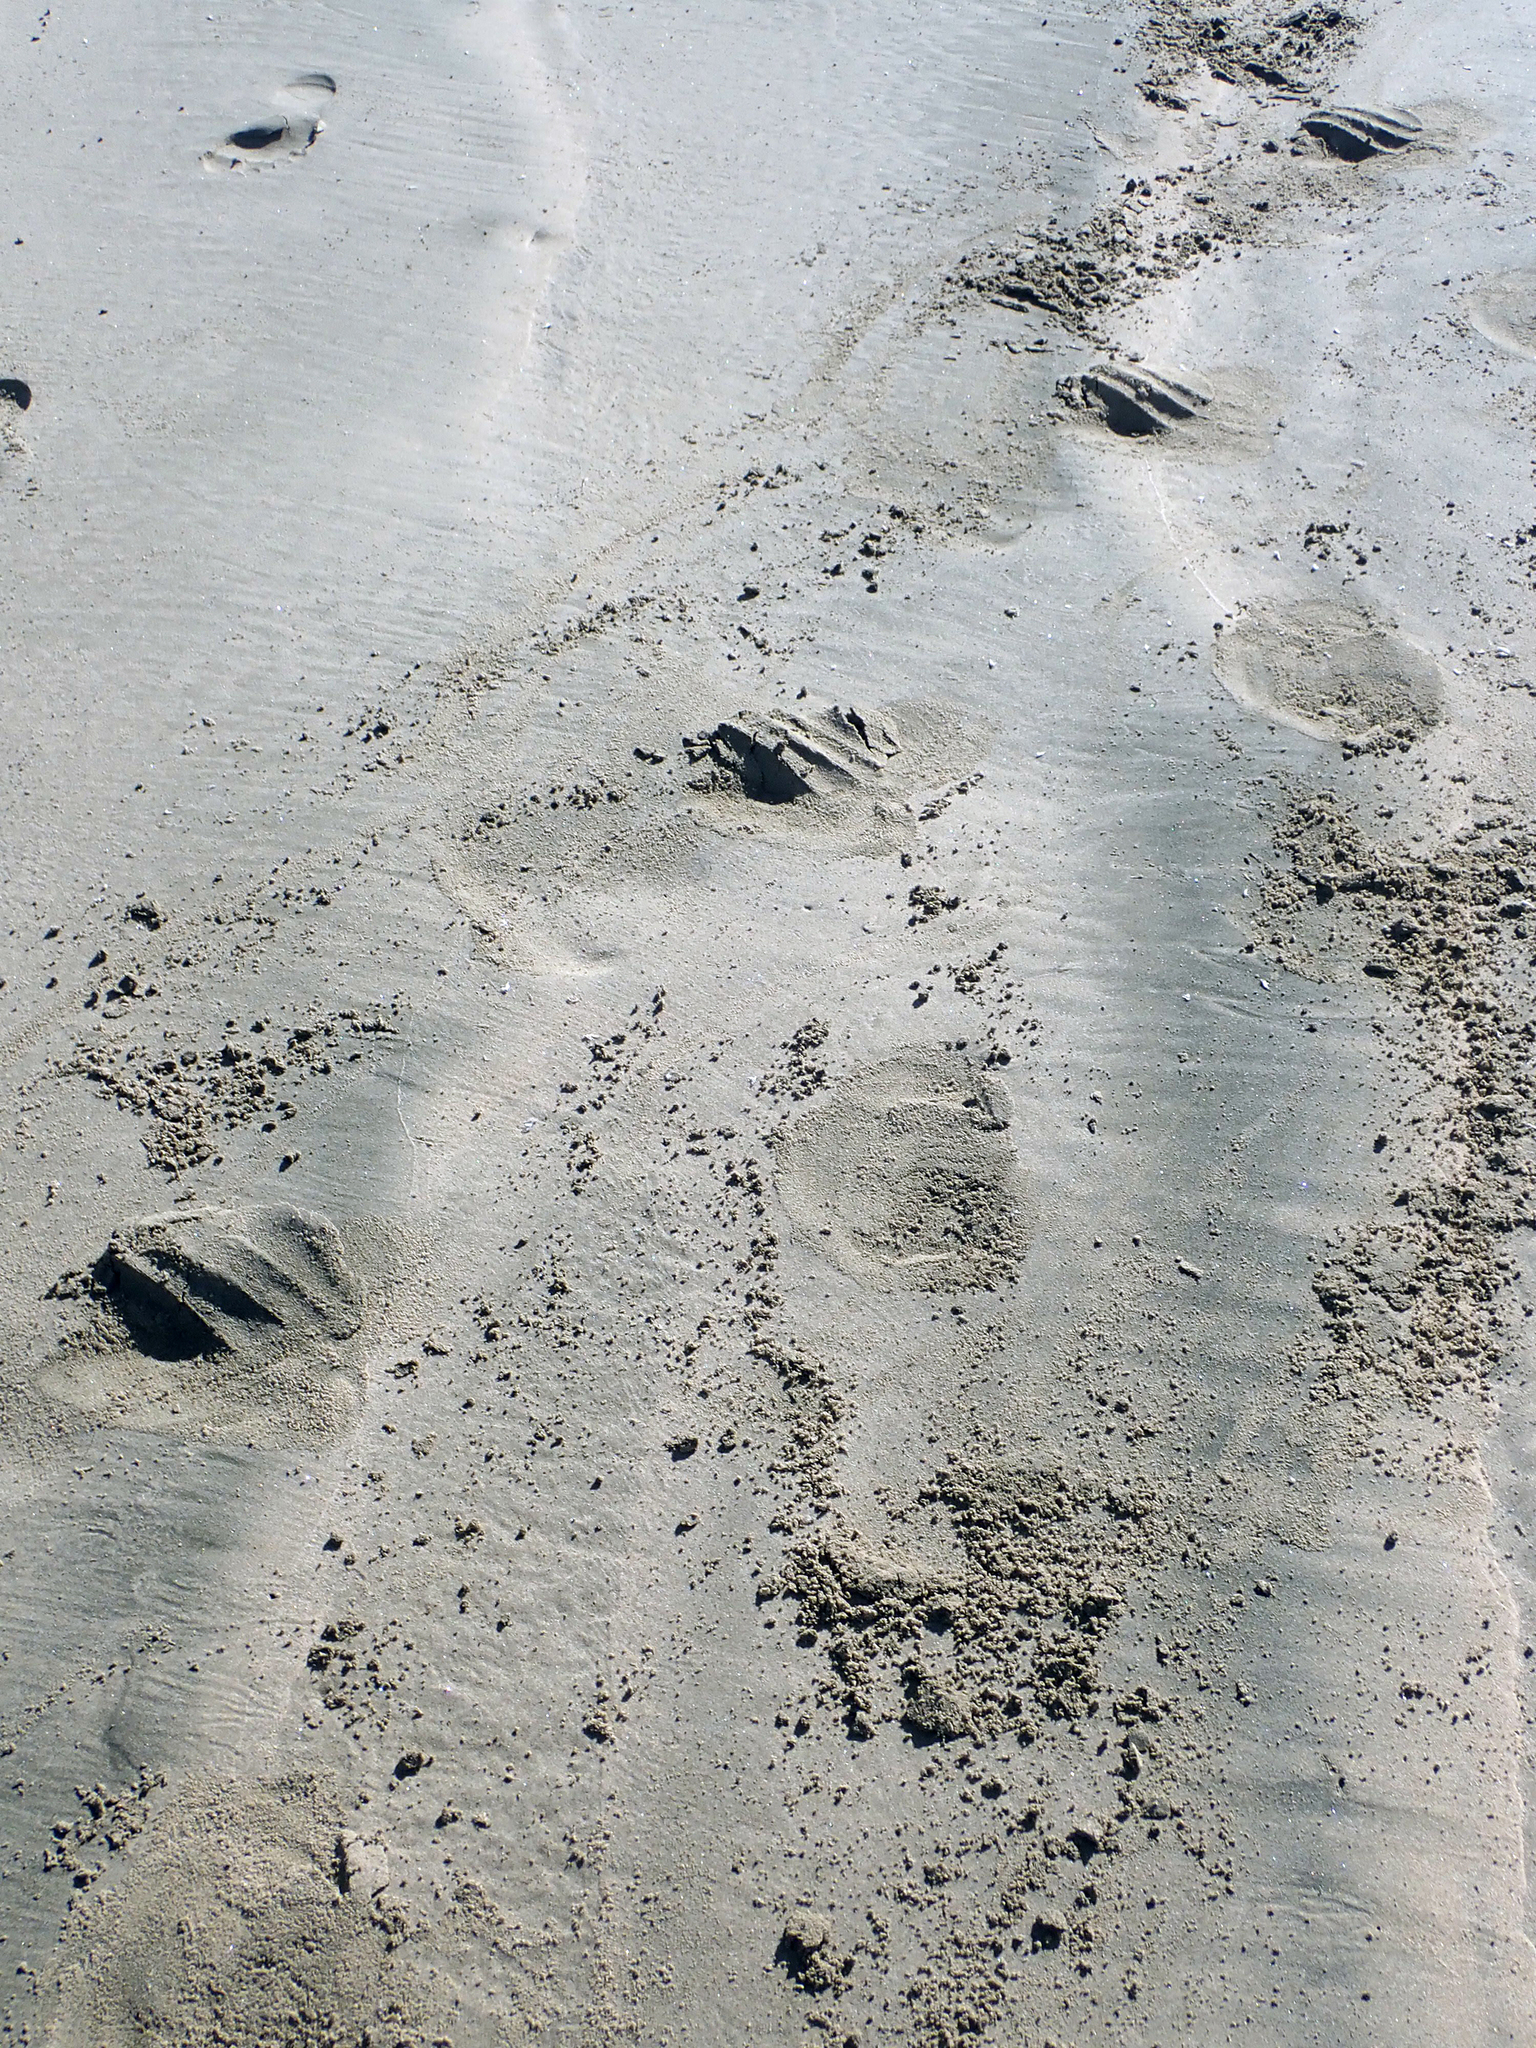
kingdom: Animalia
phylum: Chordata
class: Mammalia
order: Carnivora
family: Otariidae
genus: Phocarctos
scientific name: Phocarctos hookeri
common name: New zealand sea lion
